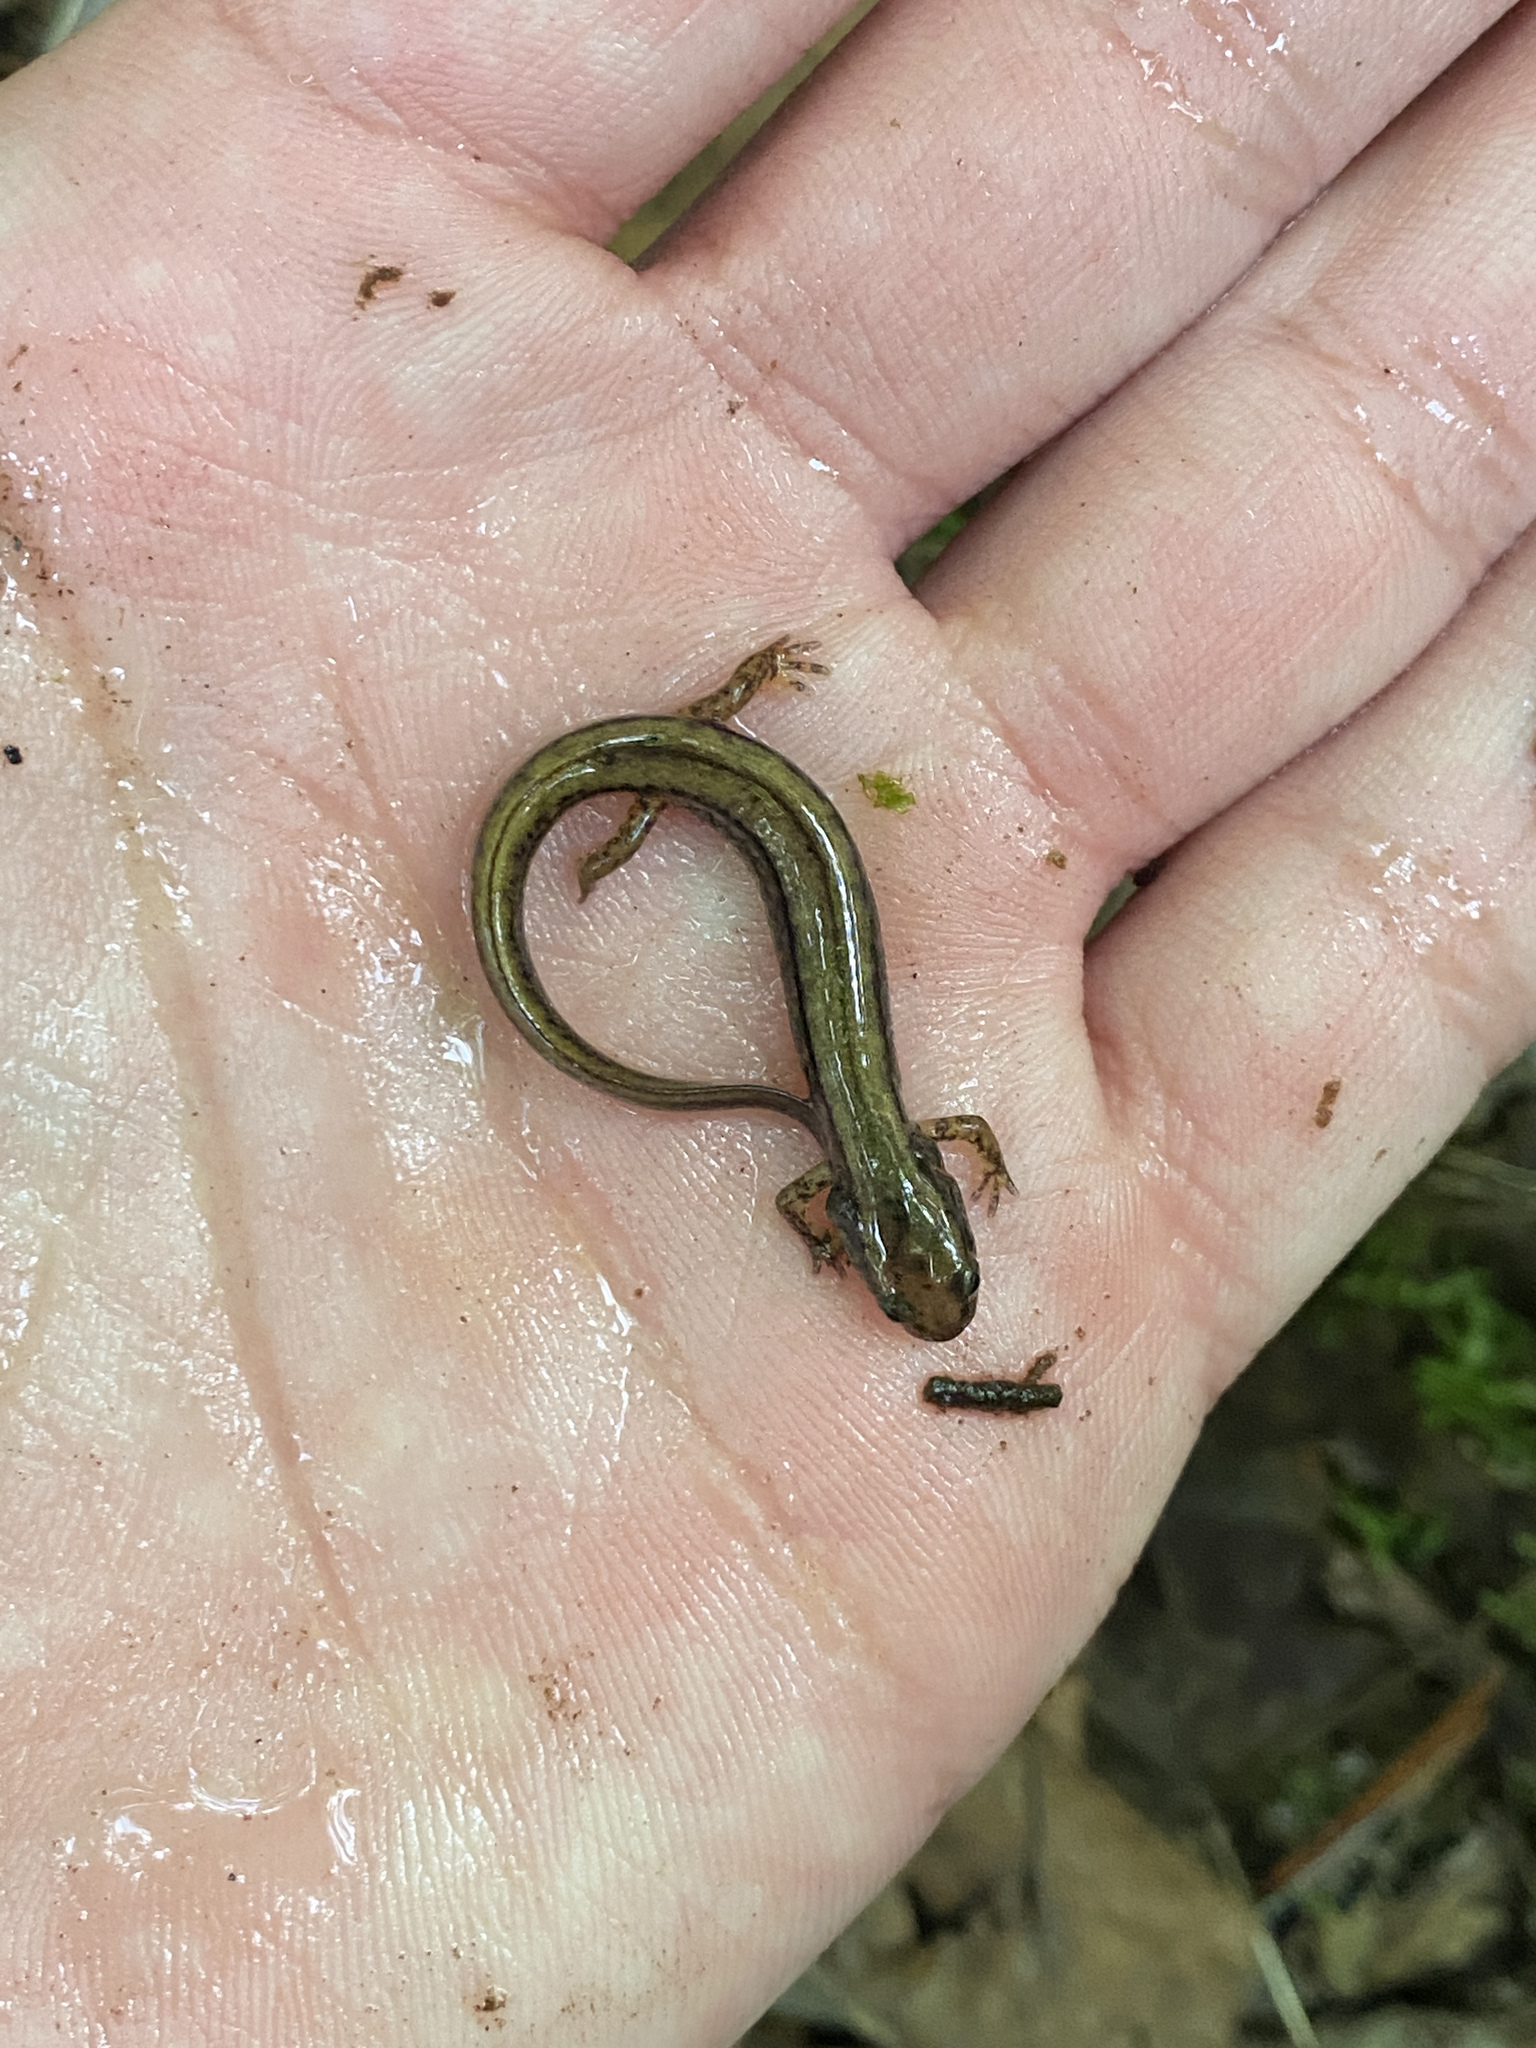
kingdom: Animalia
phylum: Chordata
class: Amphibia
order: Caudata
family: Plethodontidae
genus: Eurycea
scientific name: Eurycea bislineata
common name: Northern two-lined salamander
